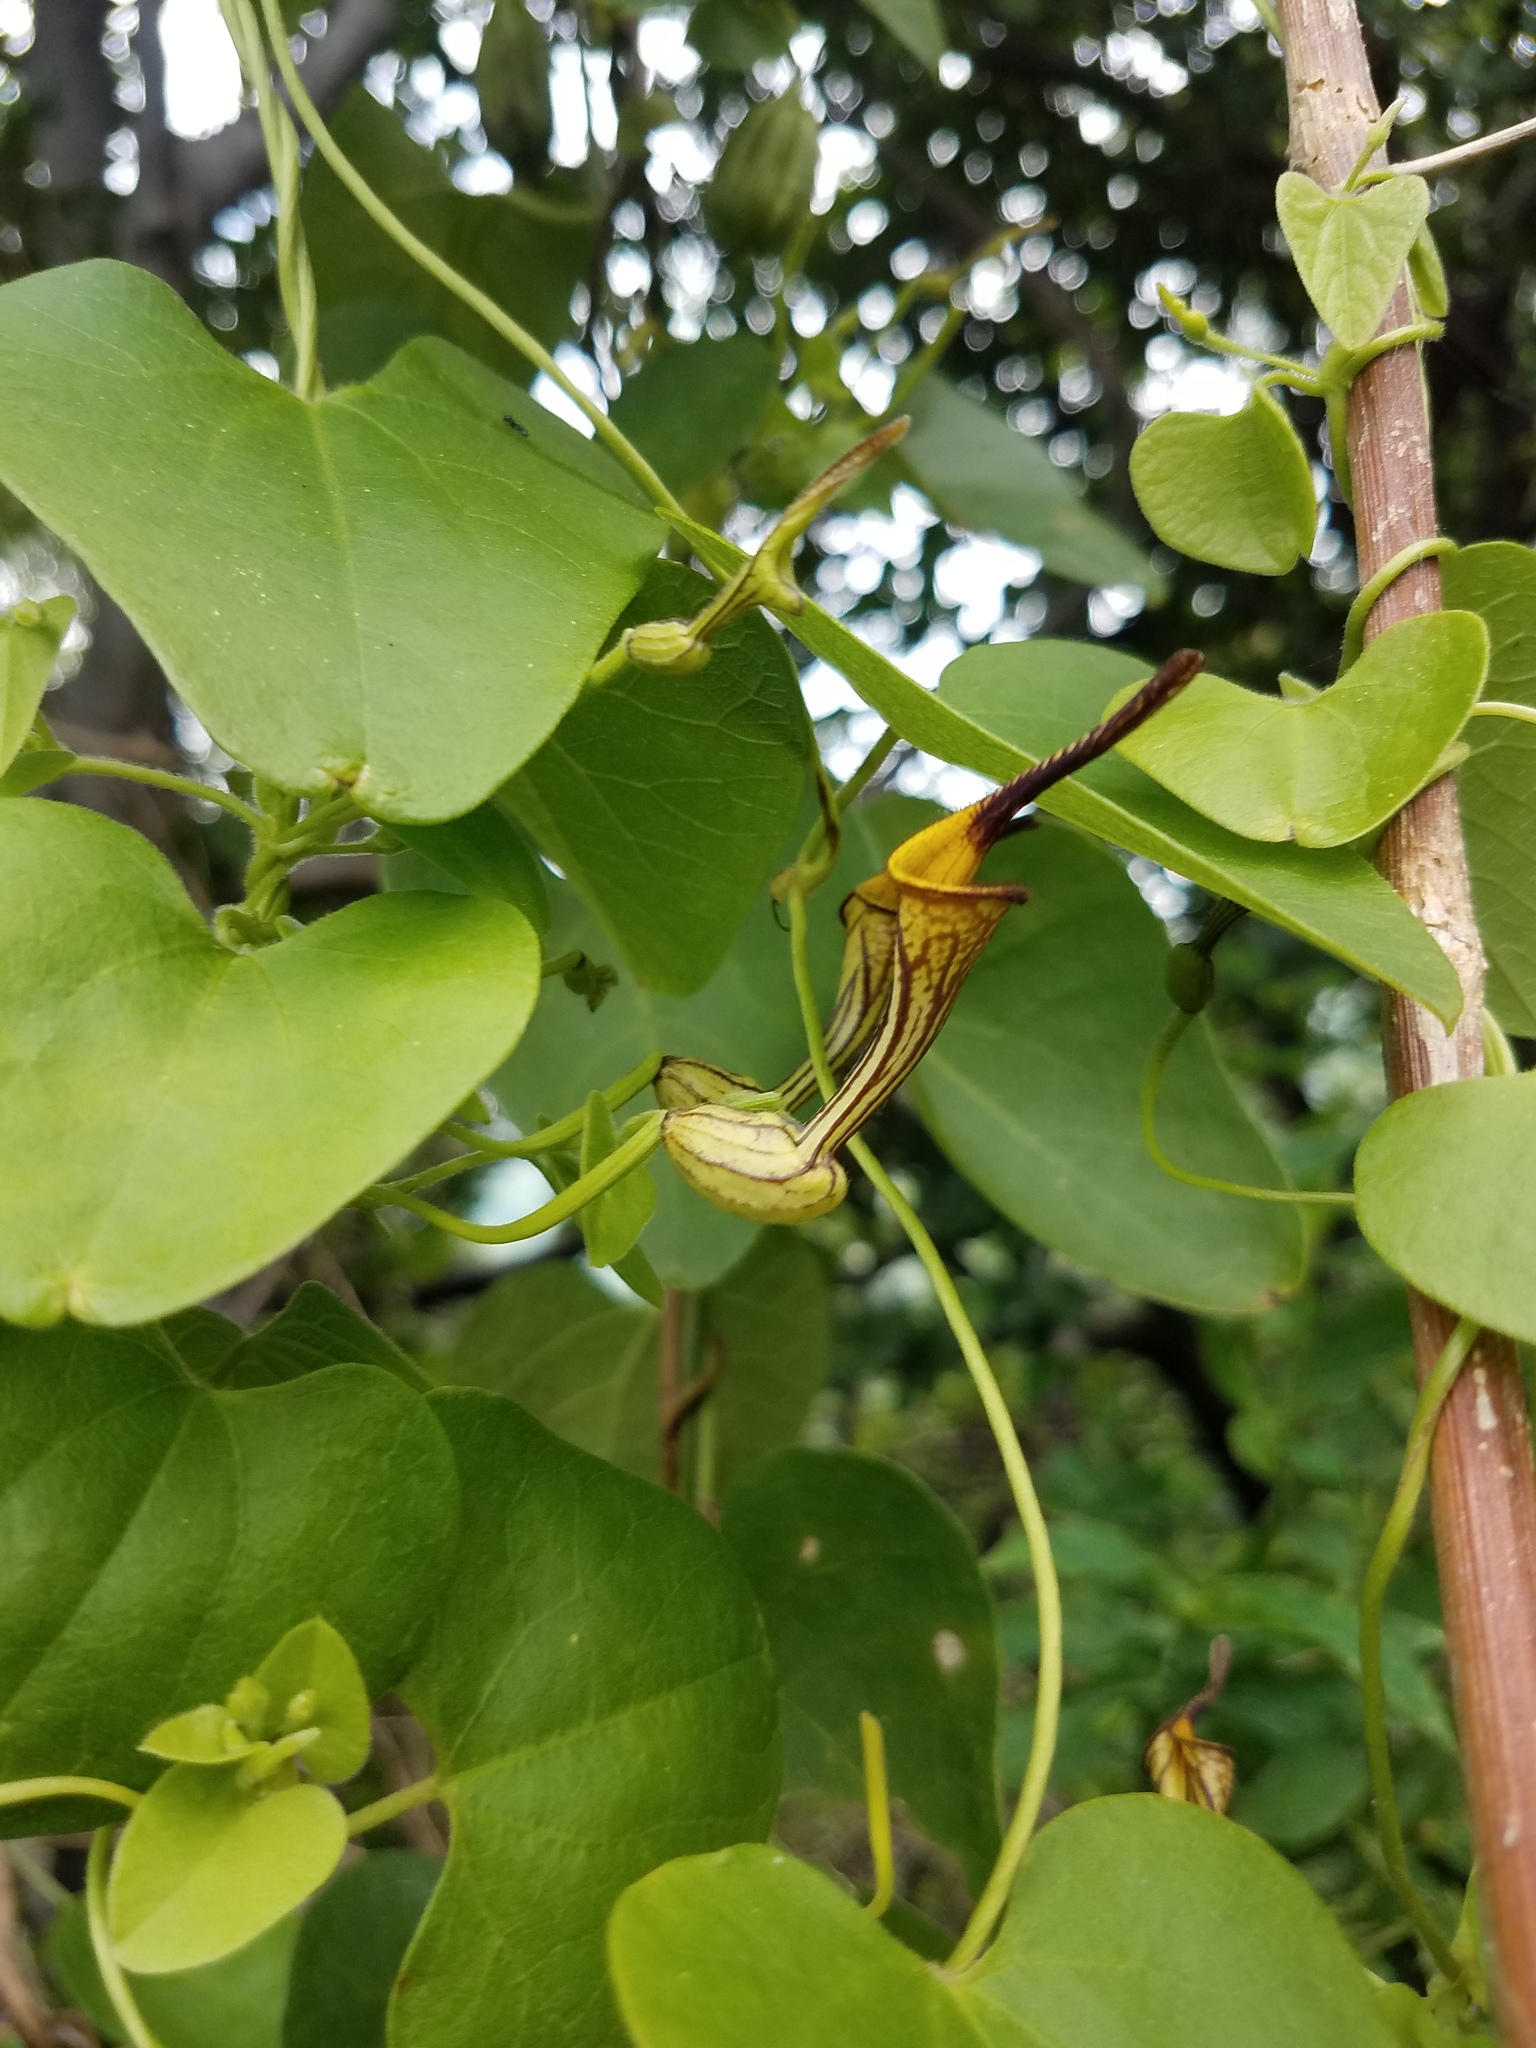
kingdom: Plantae
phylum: Tracheophyta
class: Magnoliopsida
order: Piperales
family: Aristolochiaceae
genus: Aristolochia
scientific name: Aristolochia anguicida
